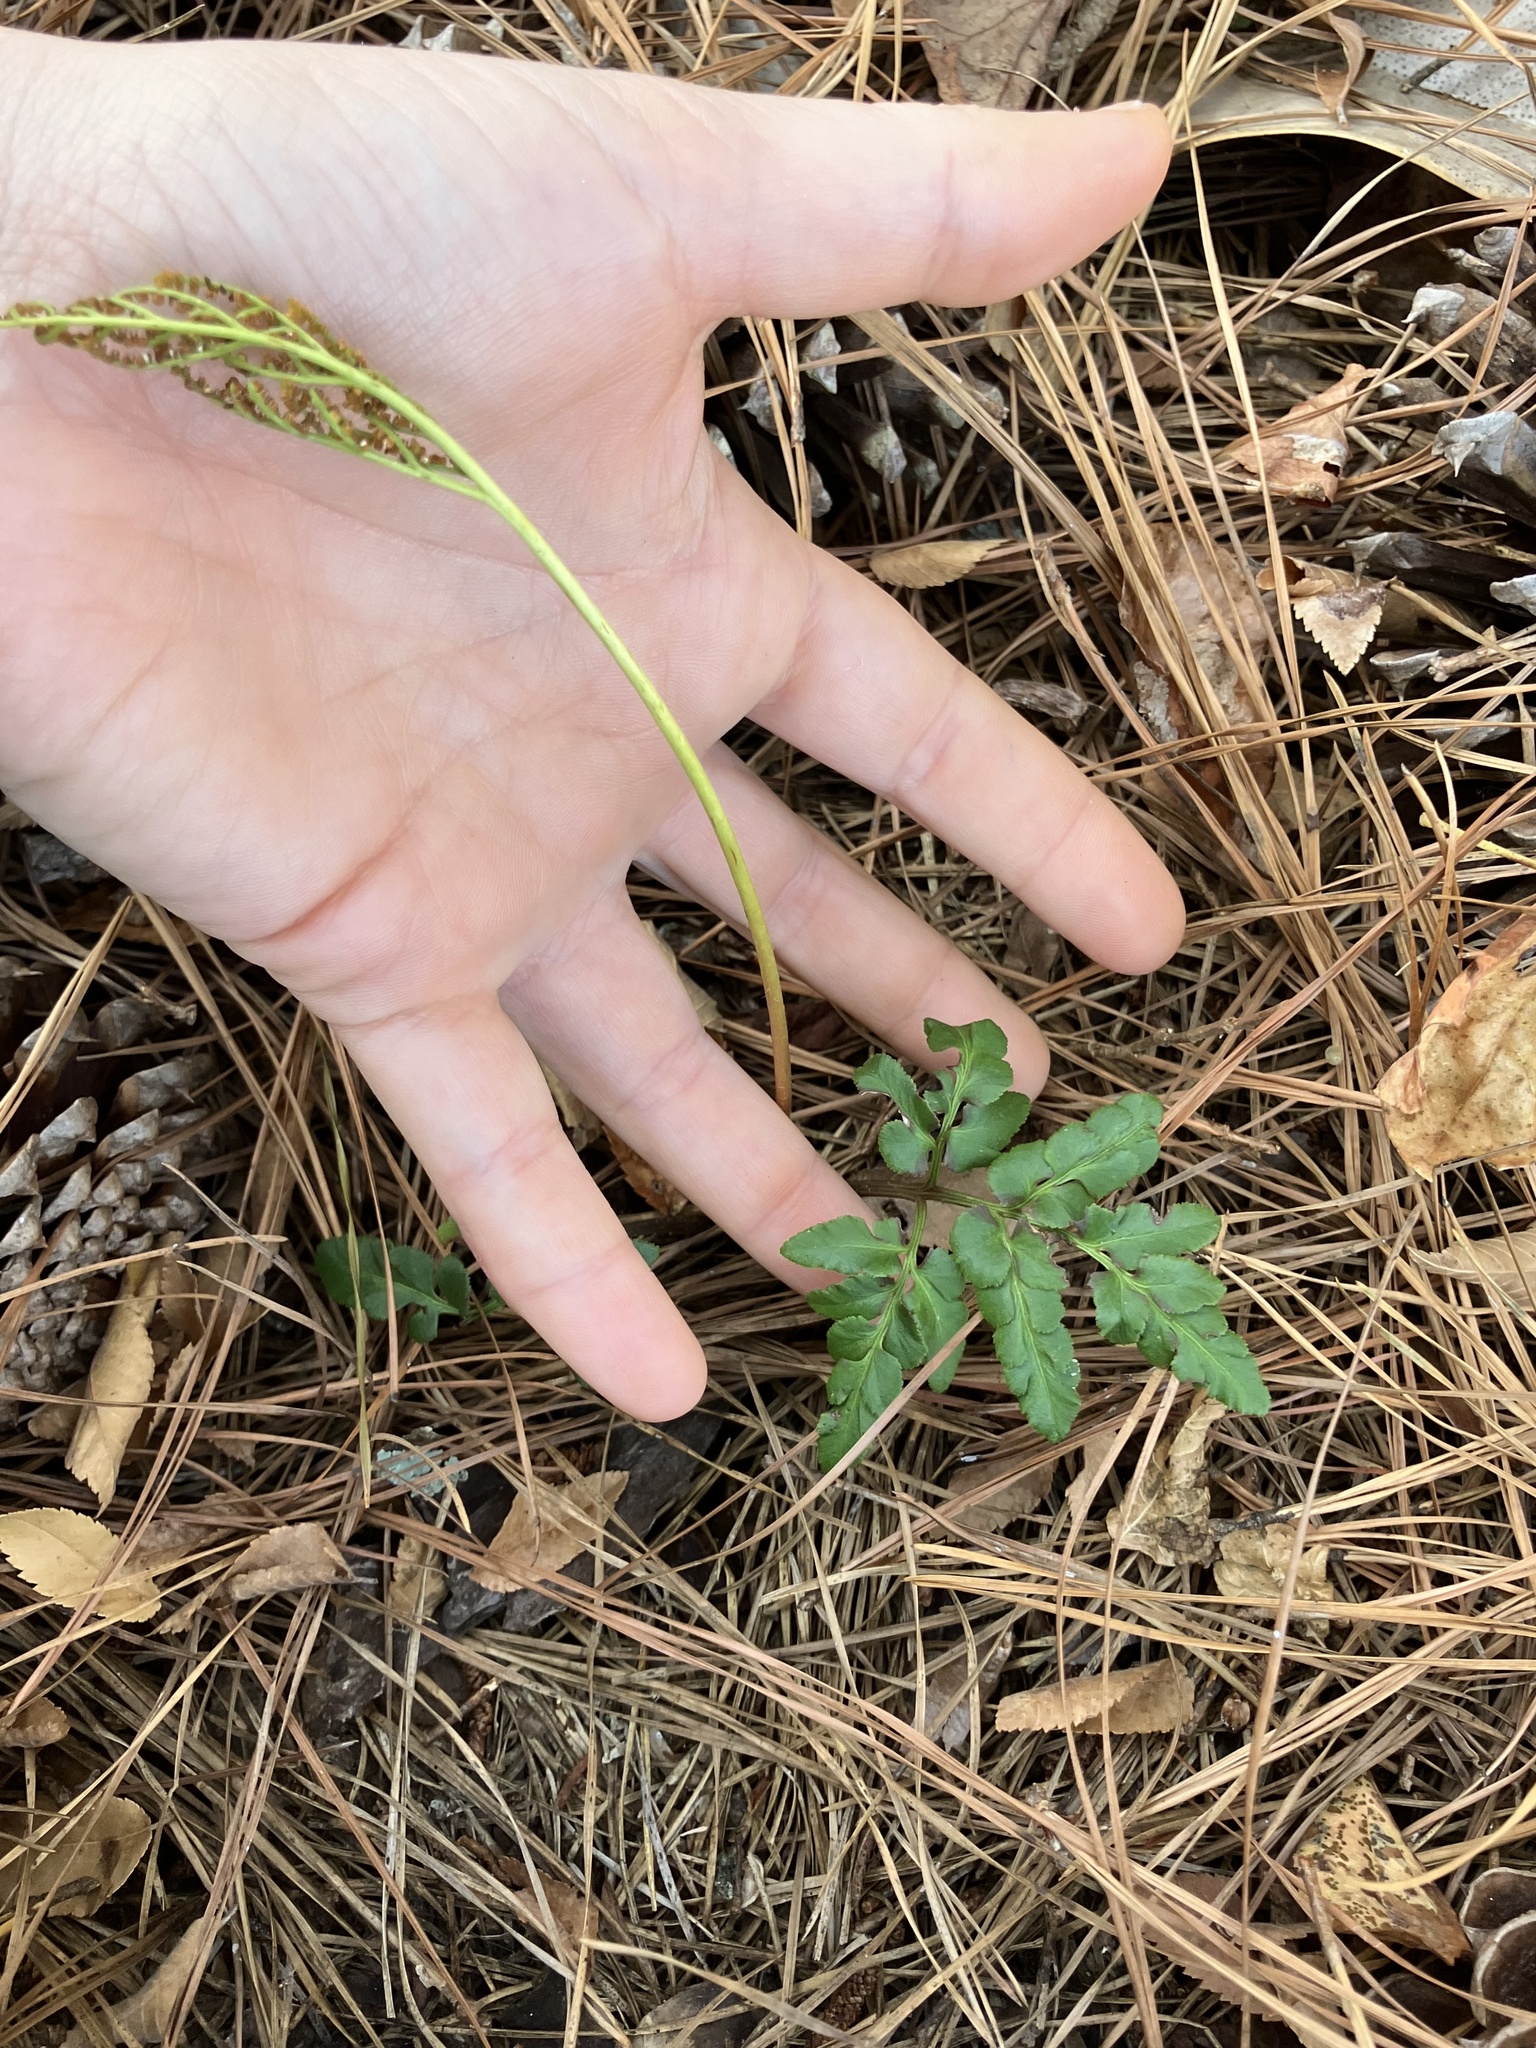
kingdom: Plantae
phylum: Tracheophyta
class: Polypodiopsida
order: Ophioglossales
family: Ophioglossaceae
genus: Sceptridium
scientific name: Sceptridium biternatum
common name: Sparse-lobed grapefern
